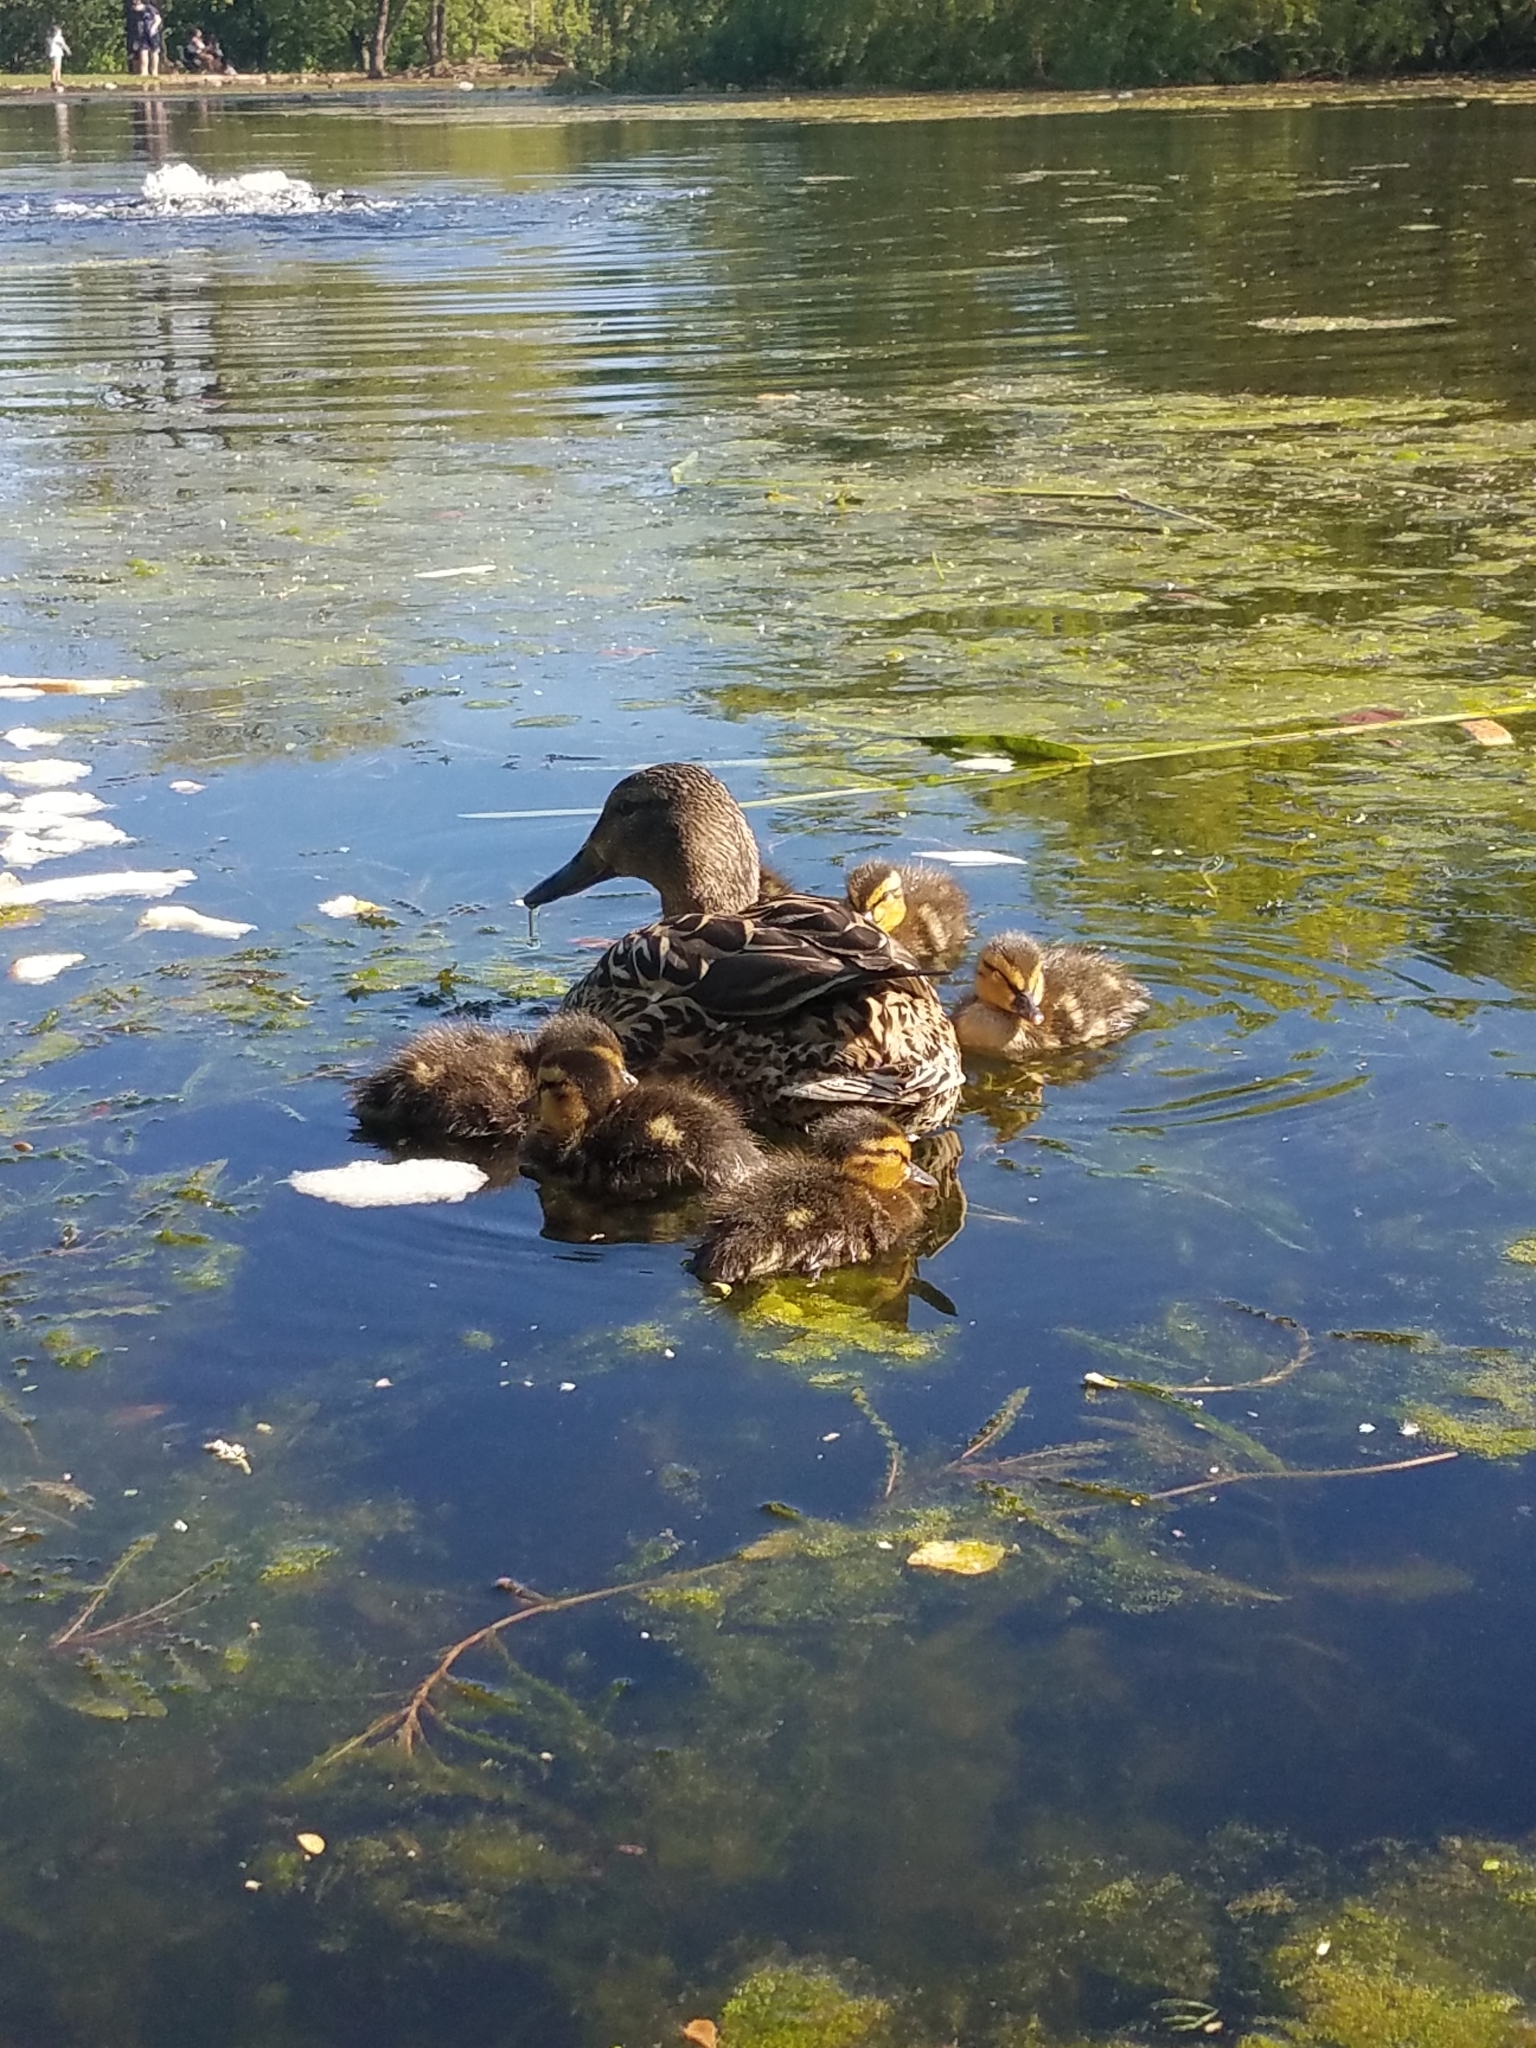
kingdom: Animalia
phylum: Chordata
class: Aves
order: Anseriformes
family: Anatidae
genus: Anas
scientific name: Anas platyrhynchos
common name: Mallard
